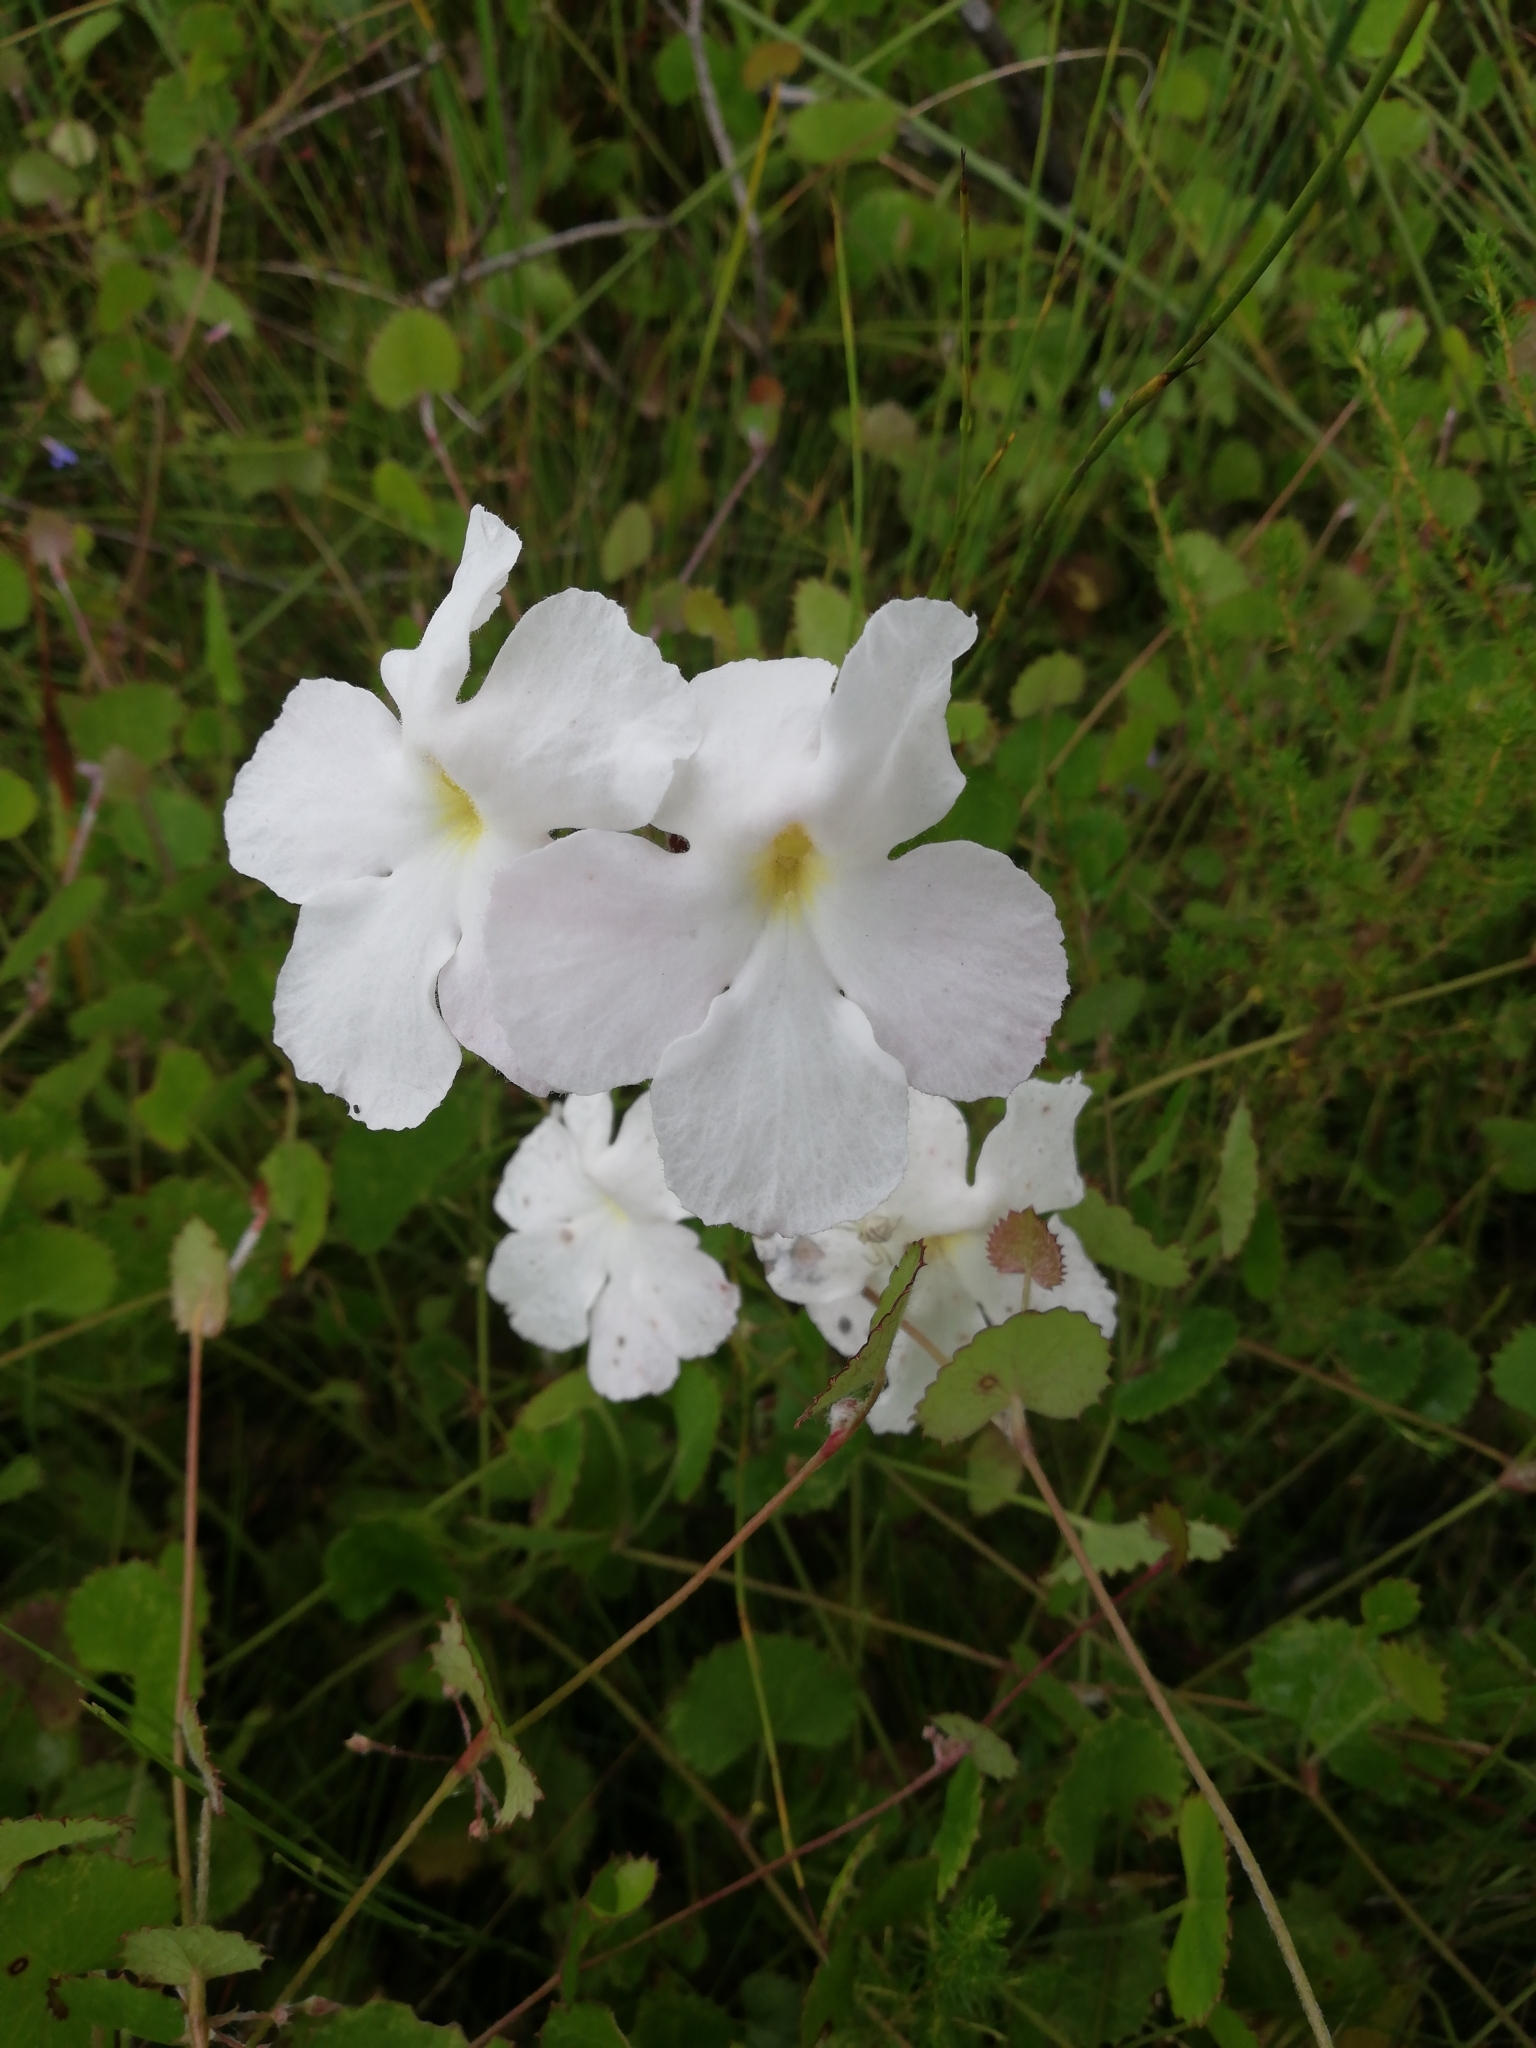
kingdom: Plantae
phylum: Tracheophyta
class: Magnoliopsida
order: Lamiales
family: Orobanchaceae
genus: Harveya
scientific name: Harveya capensis
